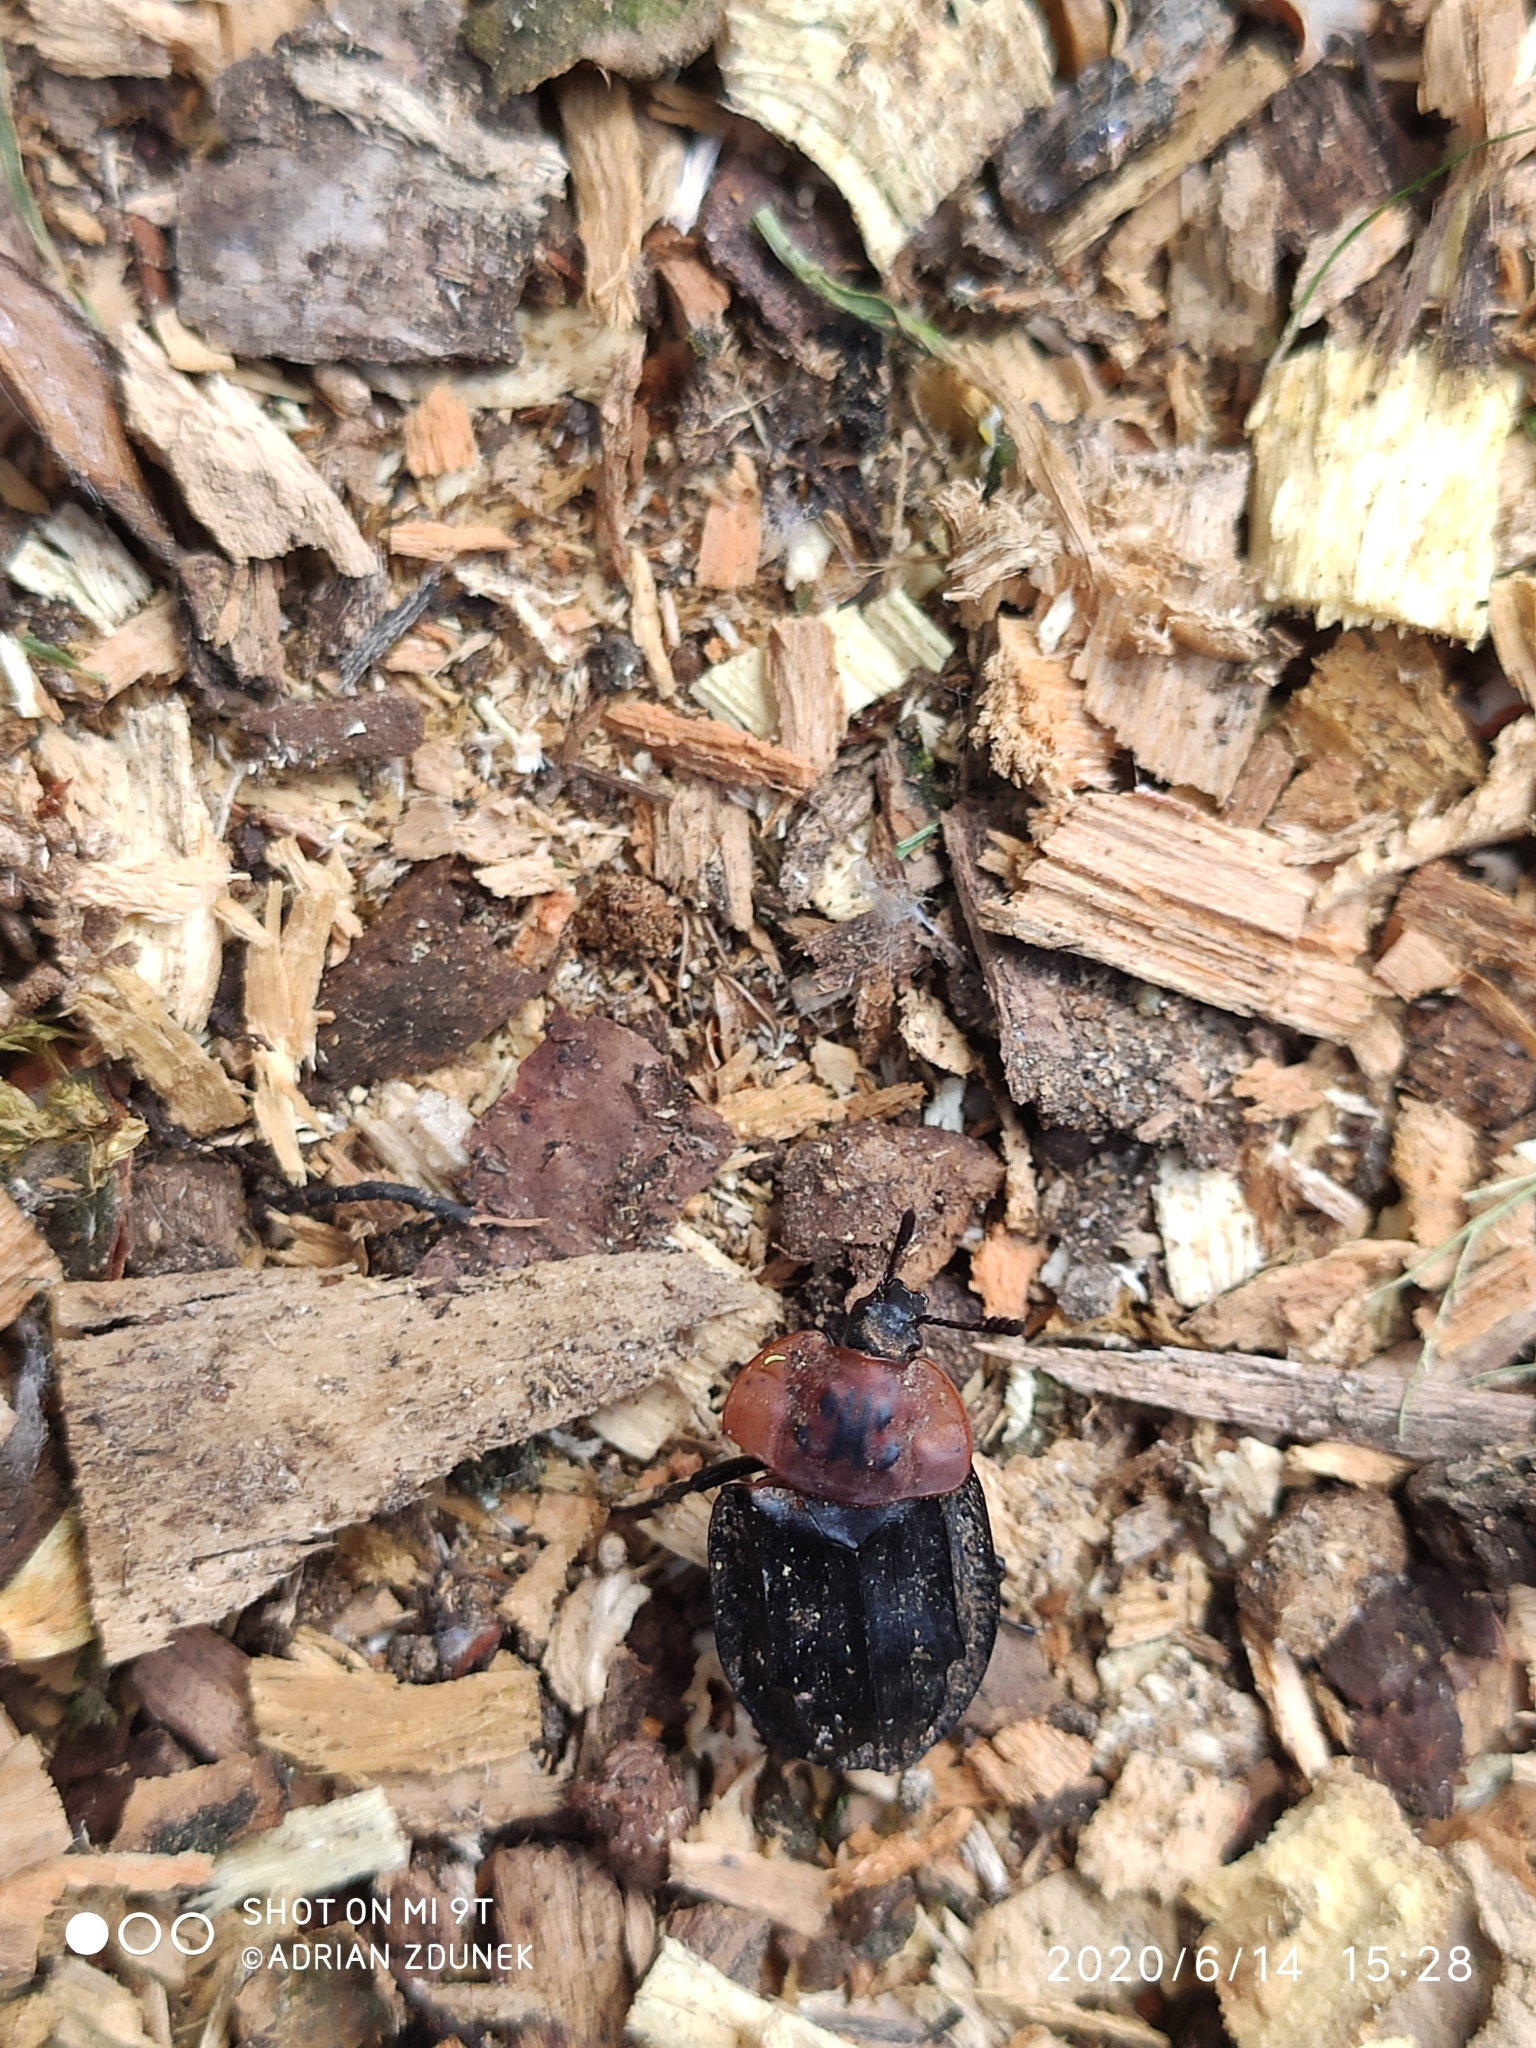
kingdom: Animalia
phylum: Arthropoda
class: Insecta
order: Coleoptera
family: Staphylinidae
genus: Oiceoptoma
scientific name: Oiceoptoma thoracicum
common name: Red-breasted carrion beetle
